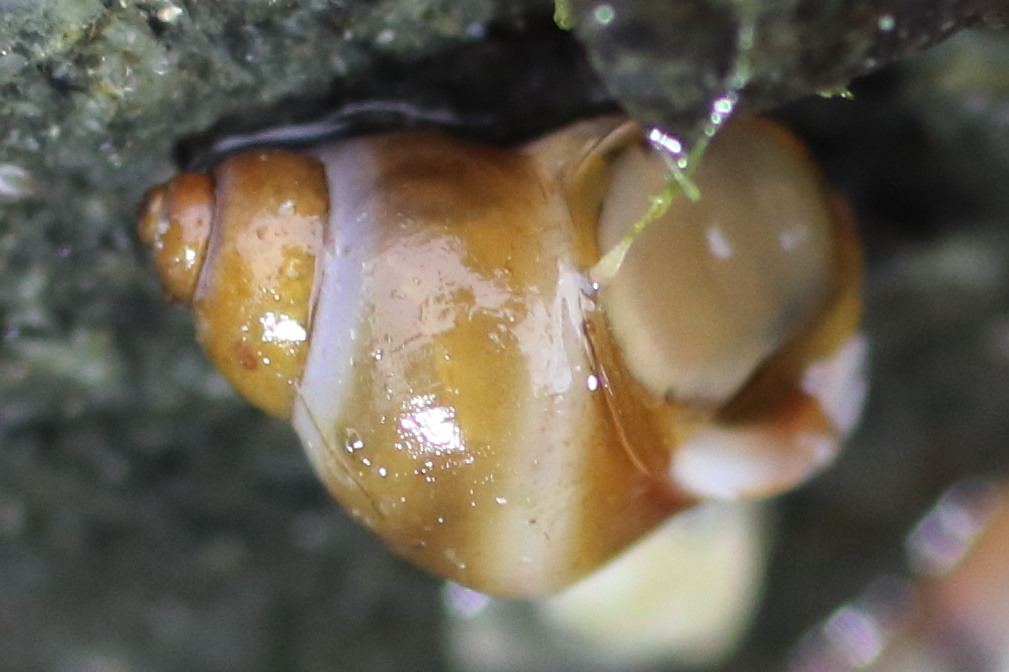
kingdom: Animalia
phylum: Mollusca
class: Gastropoda
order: Littorinimorpha
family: Littorinidae
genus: Lacuna
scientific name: Lacuna vincta
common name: Banded chink shell
